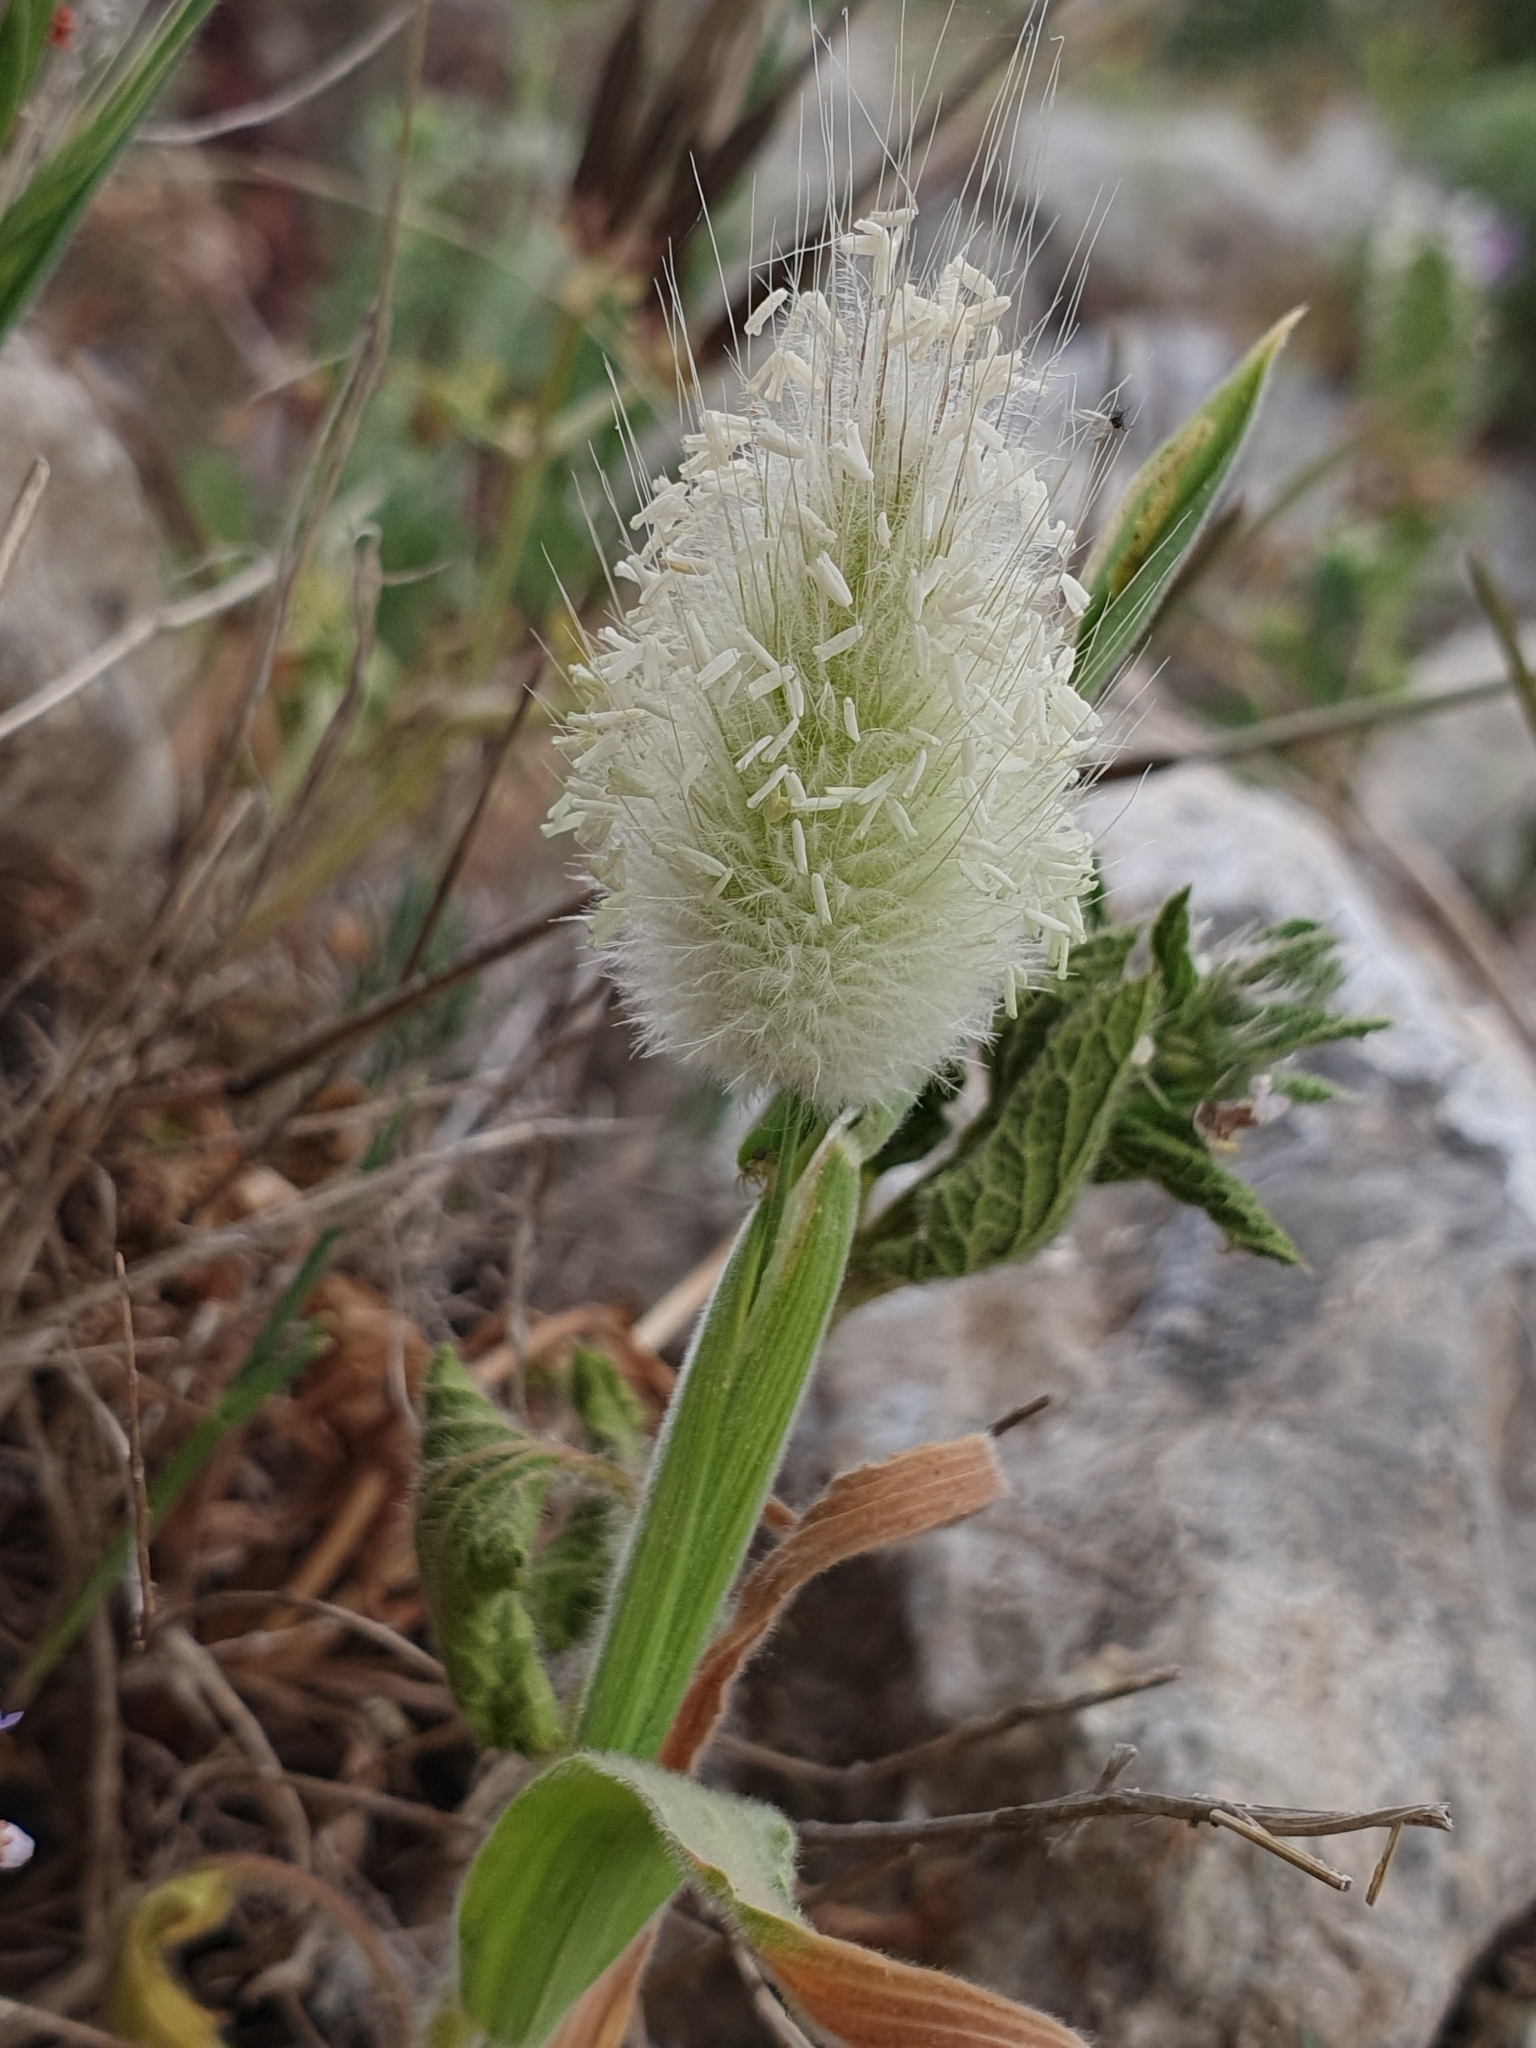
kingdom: Plantae
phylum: Tracheophyta
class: Liliopsida
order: Poales
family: Poaceae
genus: Lagurus
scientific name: Lagurus ovatus
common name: Hare's-tail
